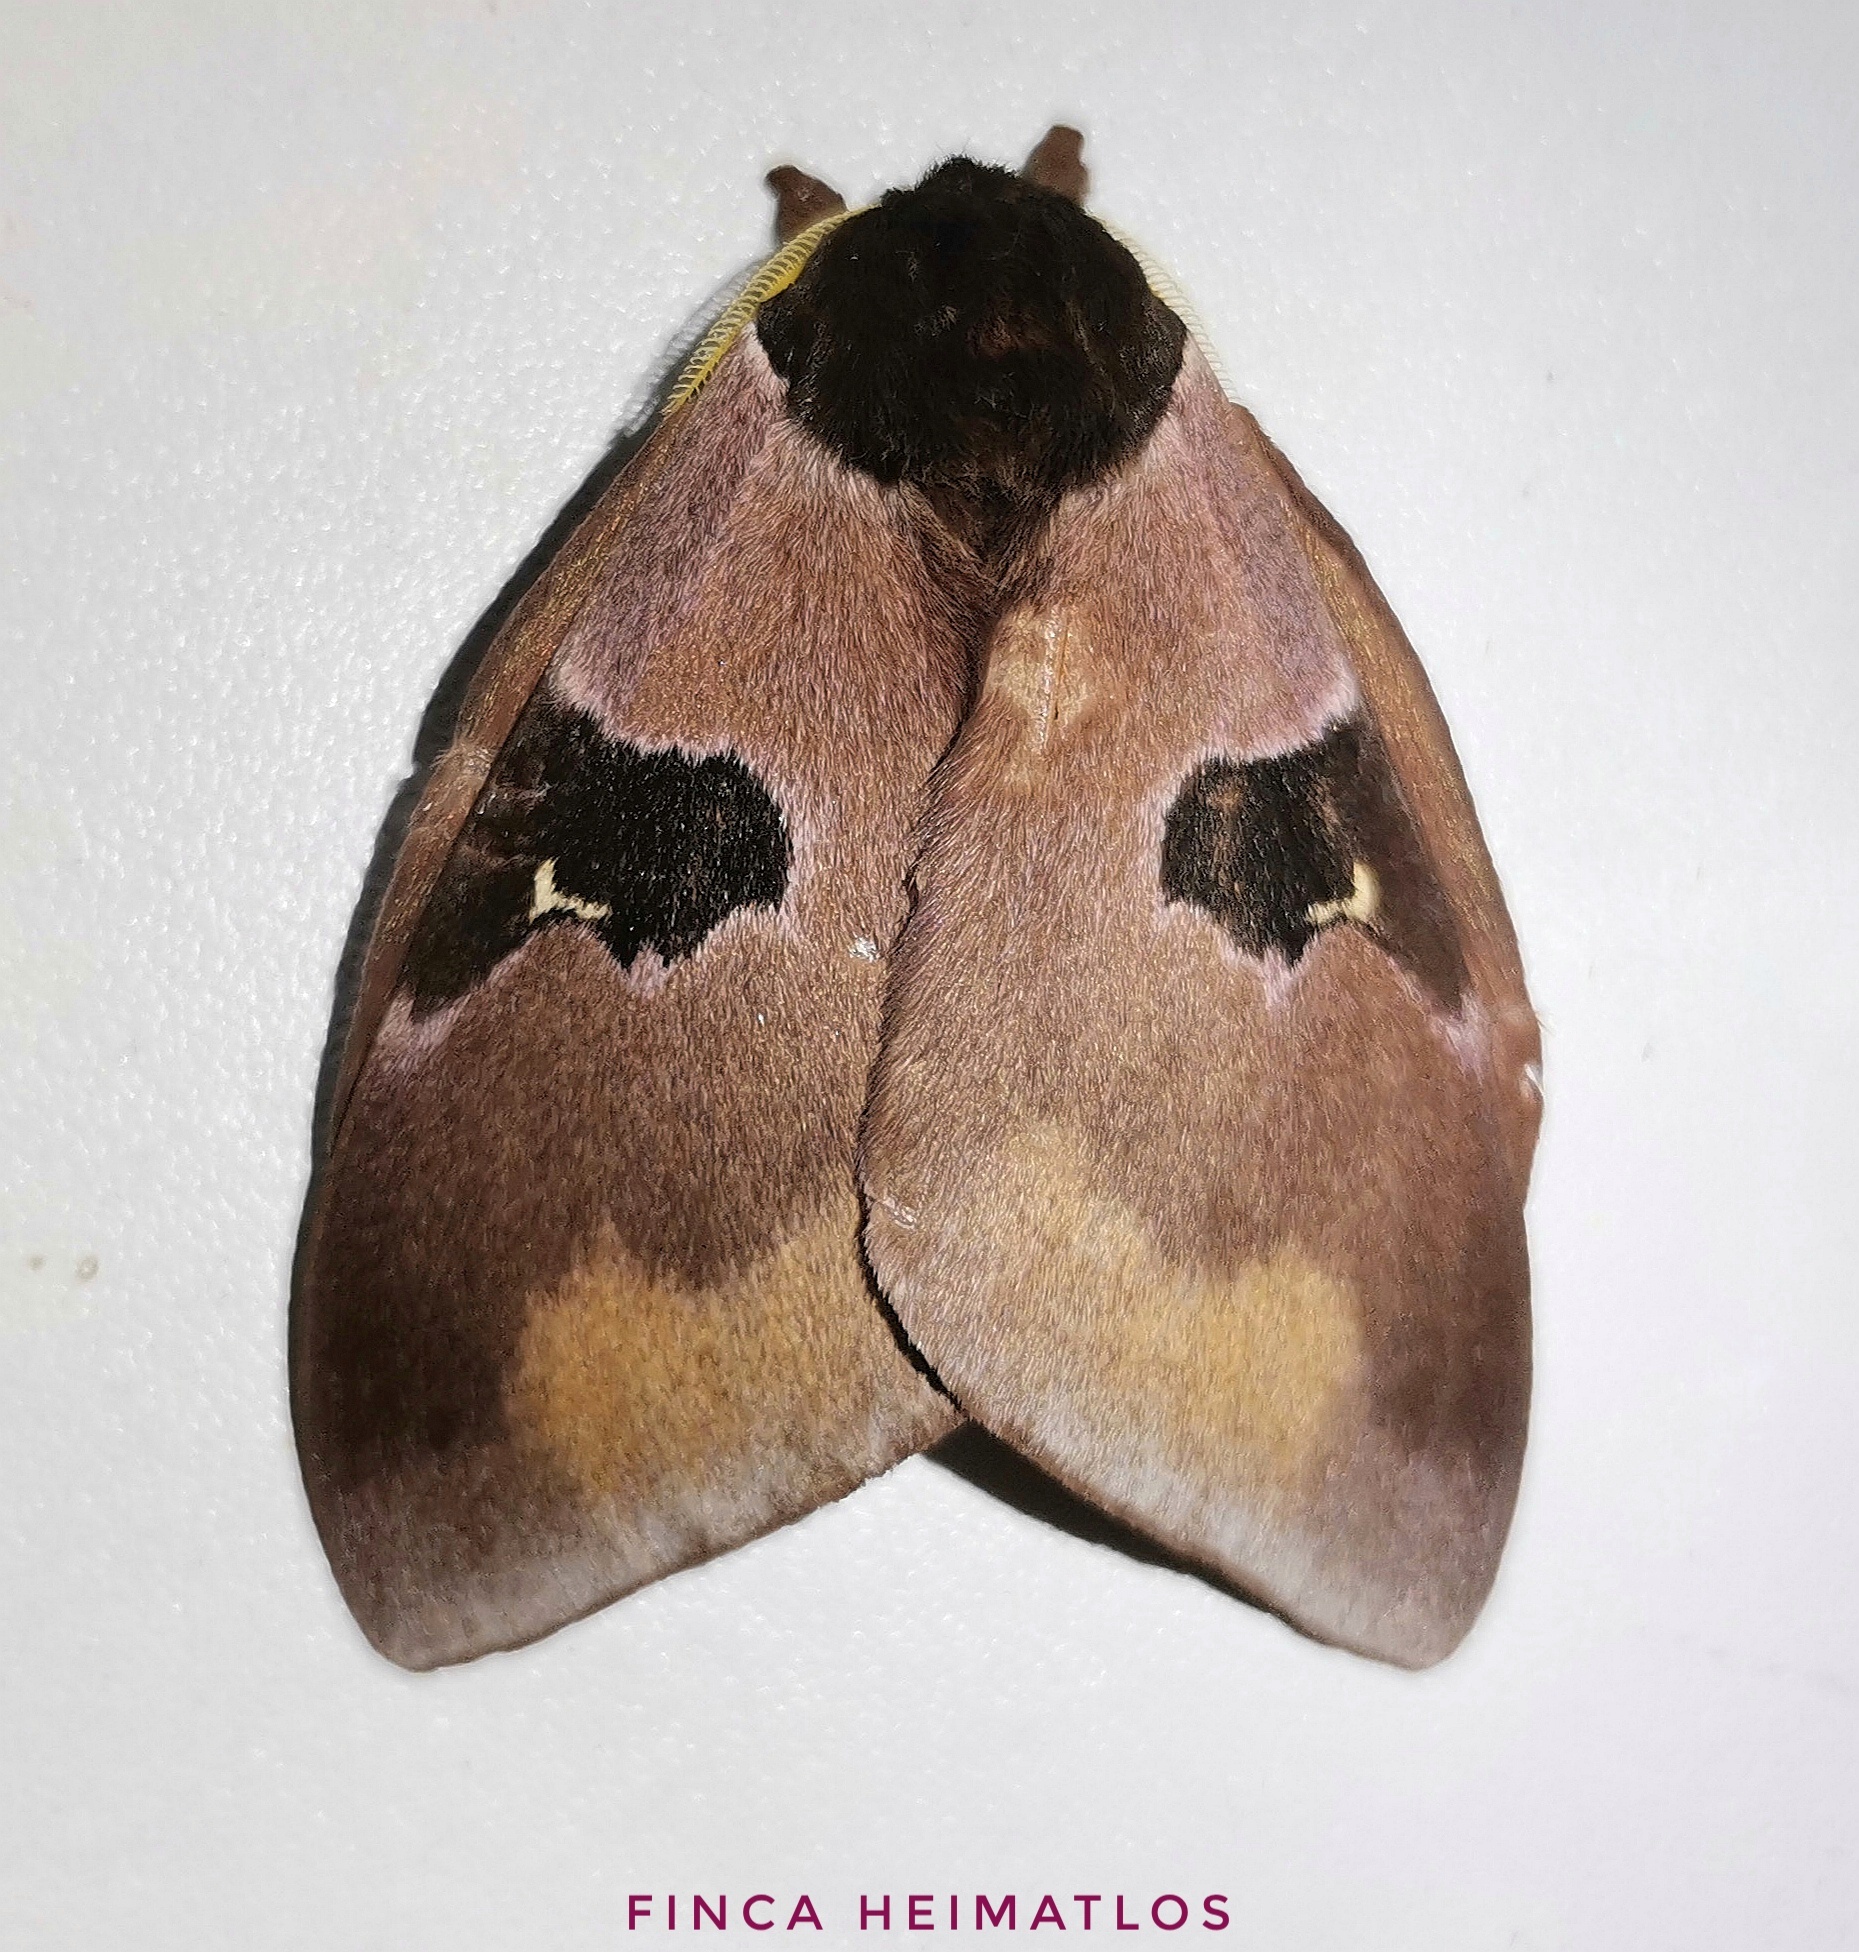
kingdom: Animalia
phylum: Arthropoda
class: Insecta
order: Lepidoptera
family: Saturniidae
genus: Dirphia
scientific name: Dirphia
